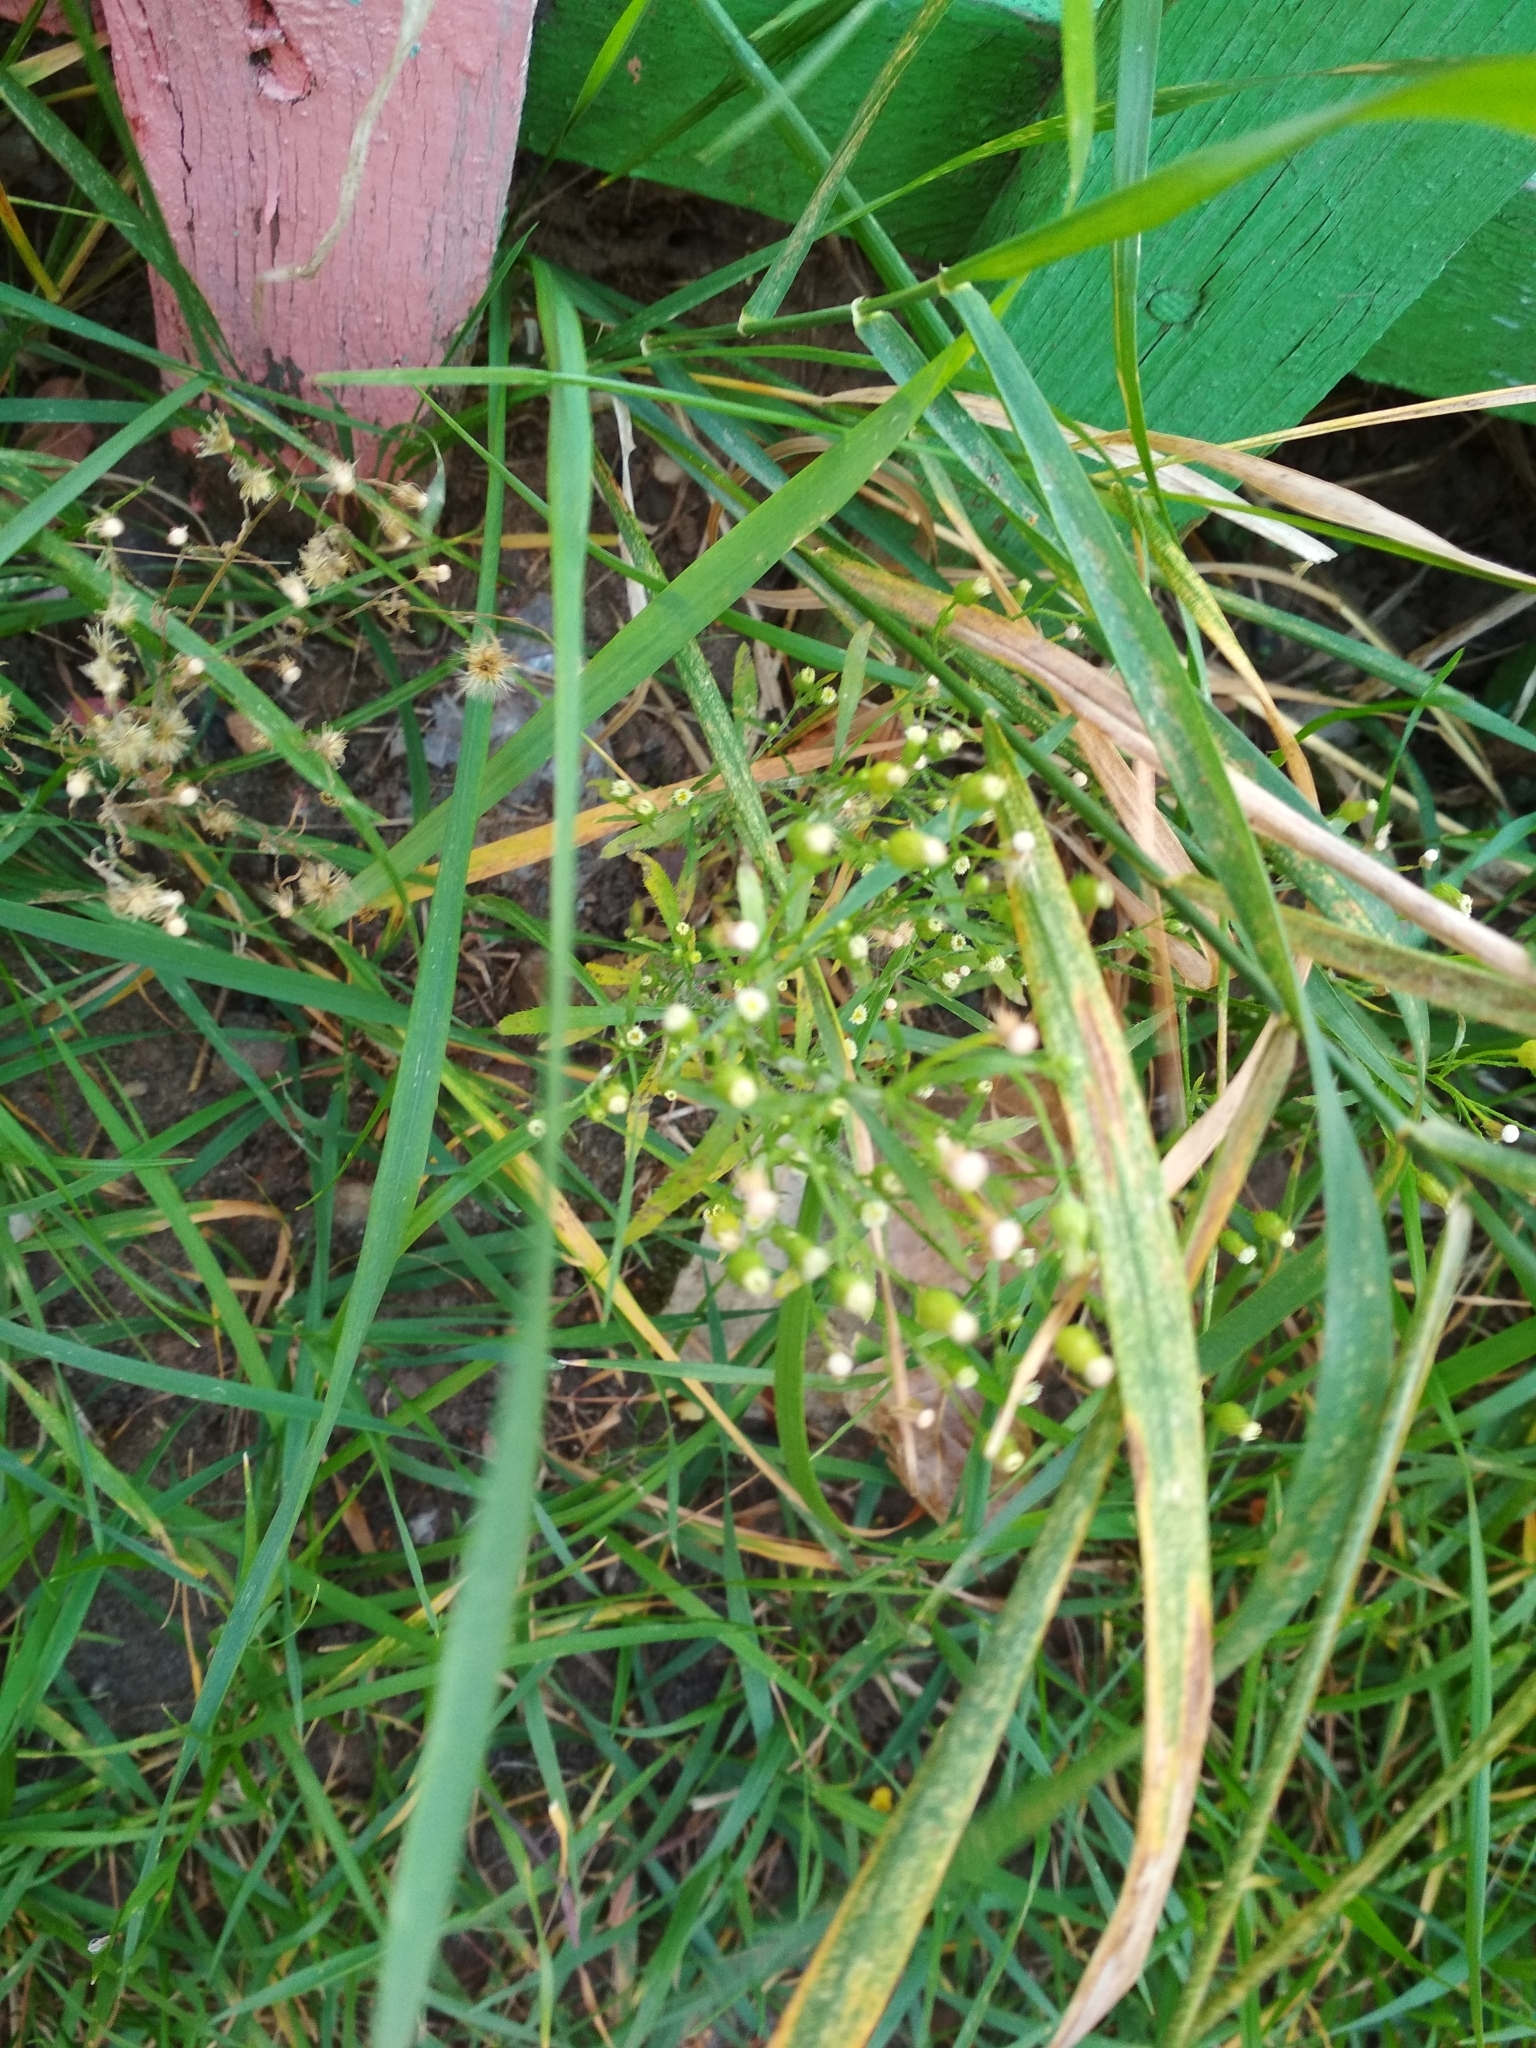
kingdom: Plantae
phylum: Tracheophyta
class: Magnoliopsida
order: Asterales
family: Asteraceae
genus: Erigeron
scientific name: Erigeron canadensis
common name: Canadian fleabane
